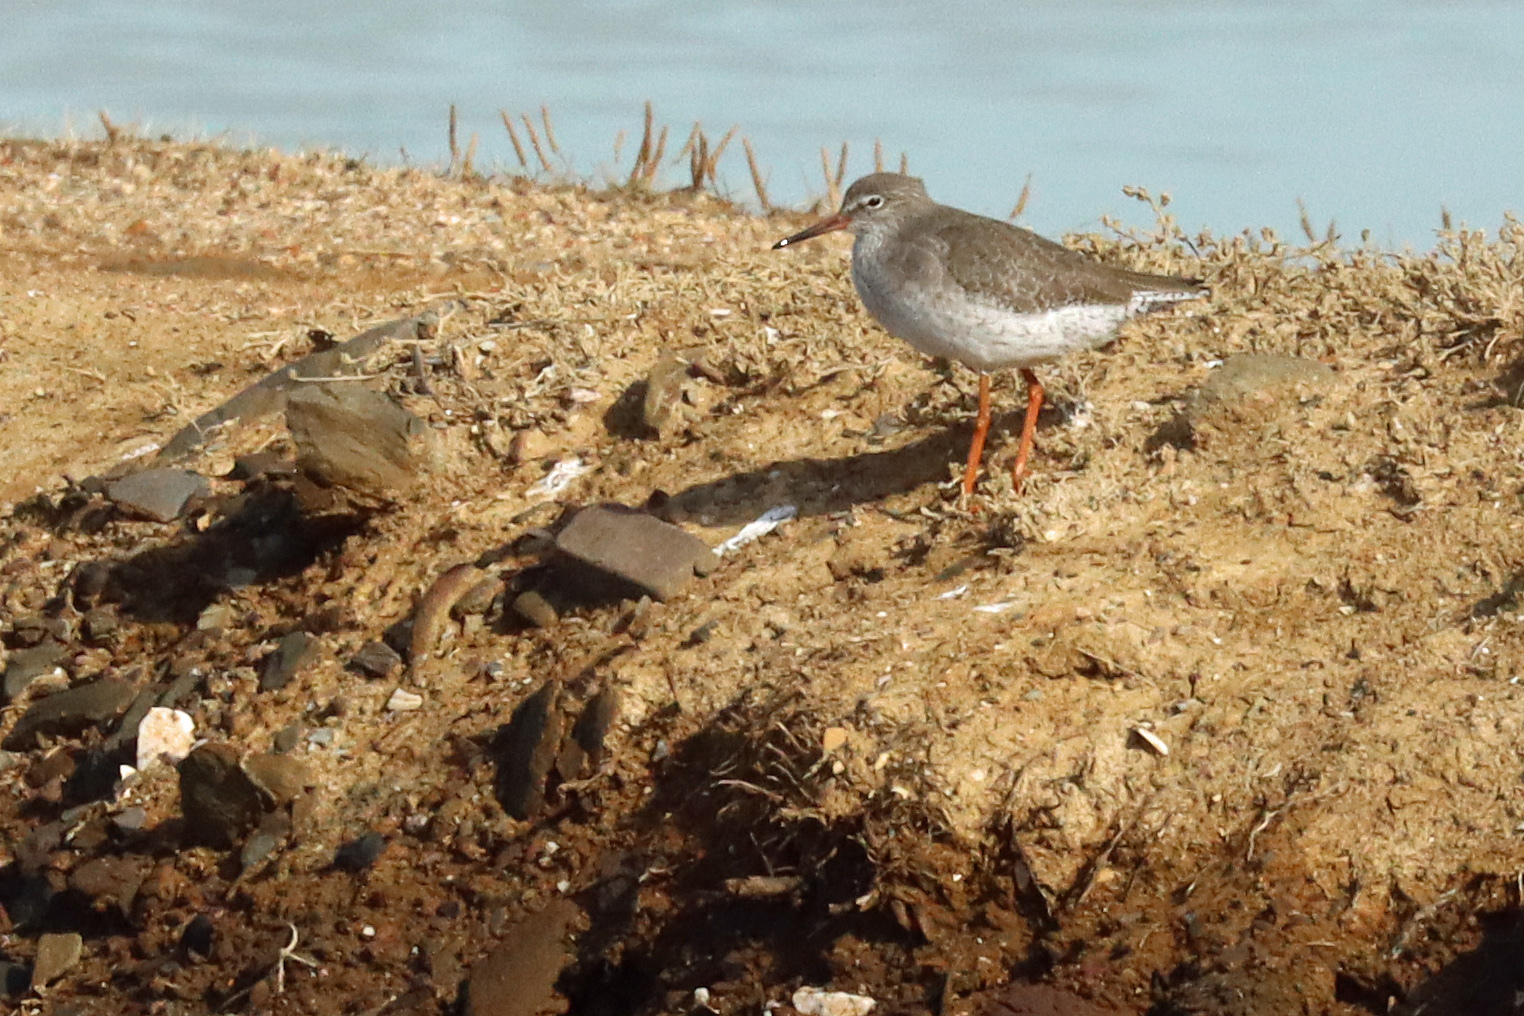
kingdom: Animalia
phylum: Chordata
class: Aves
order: Charadriiformes
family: Scolopacidae
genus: Tringa
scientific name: Tringa totanus
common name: Common redshank
